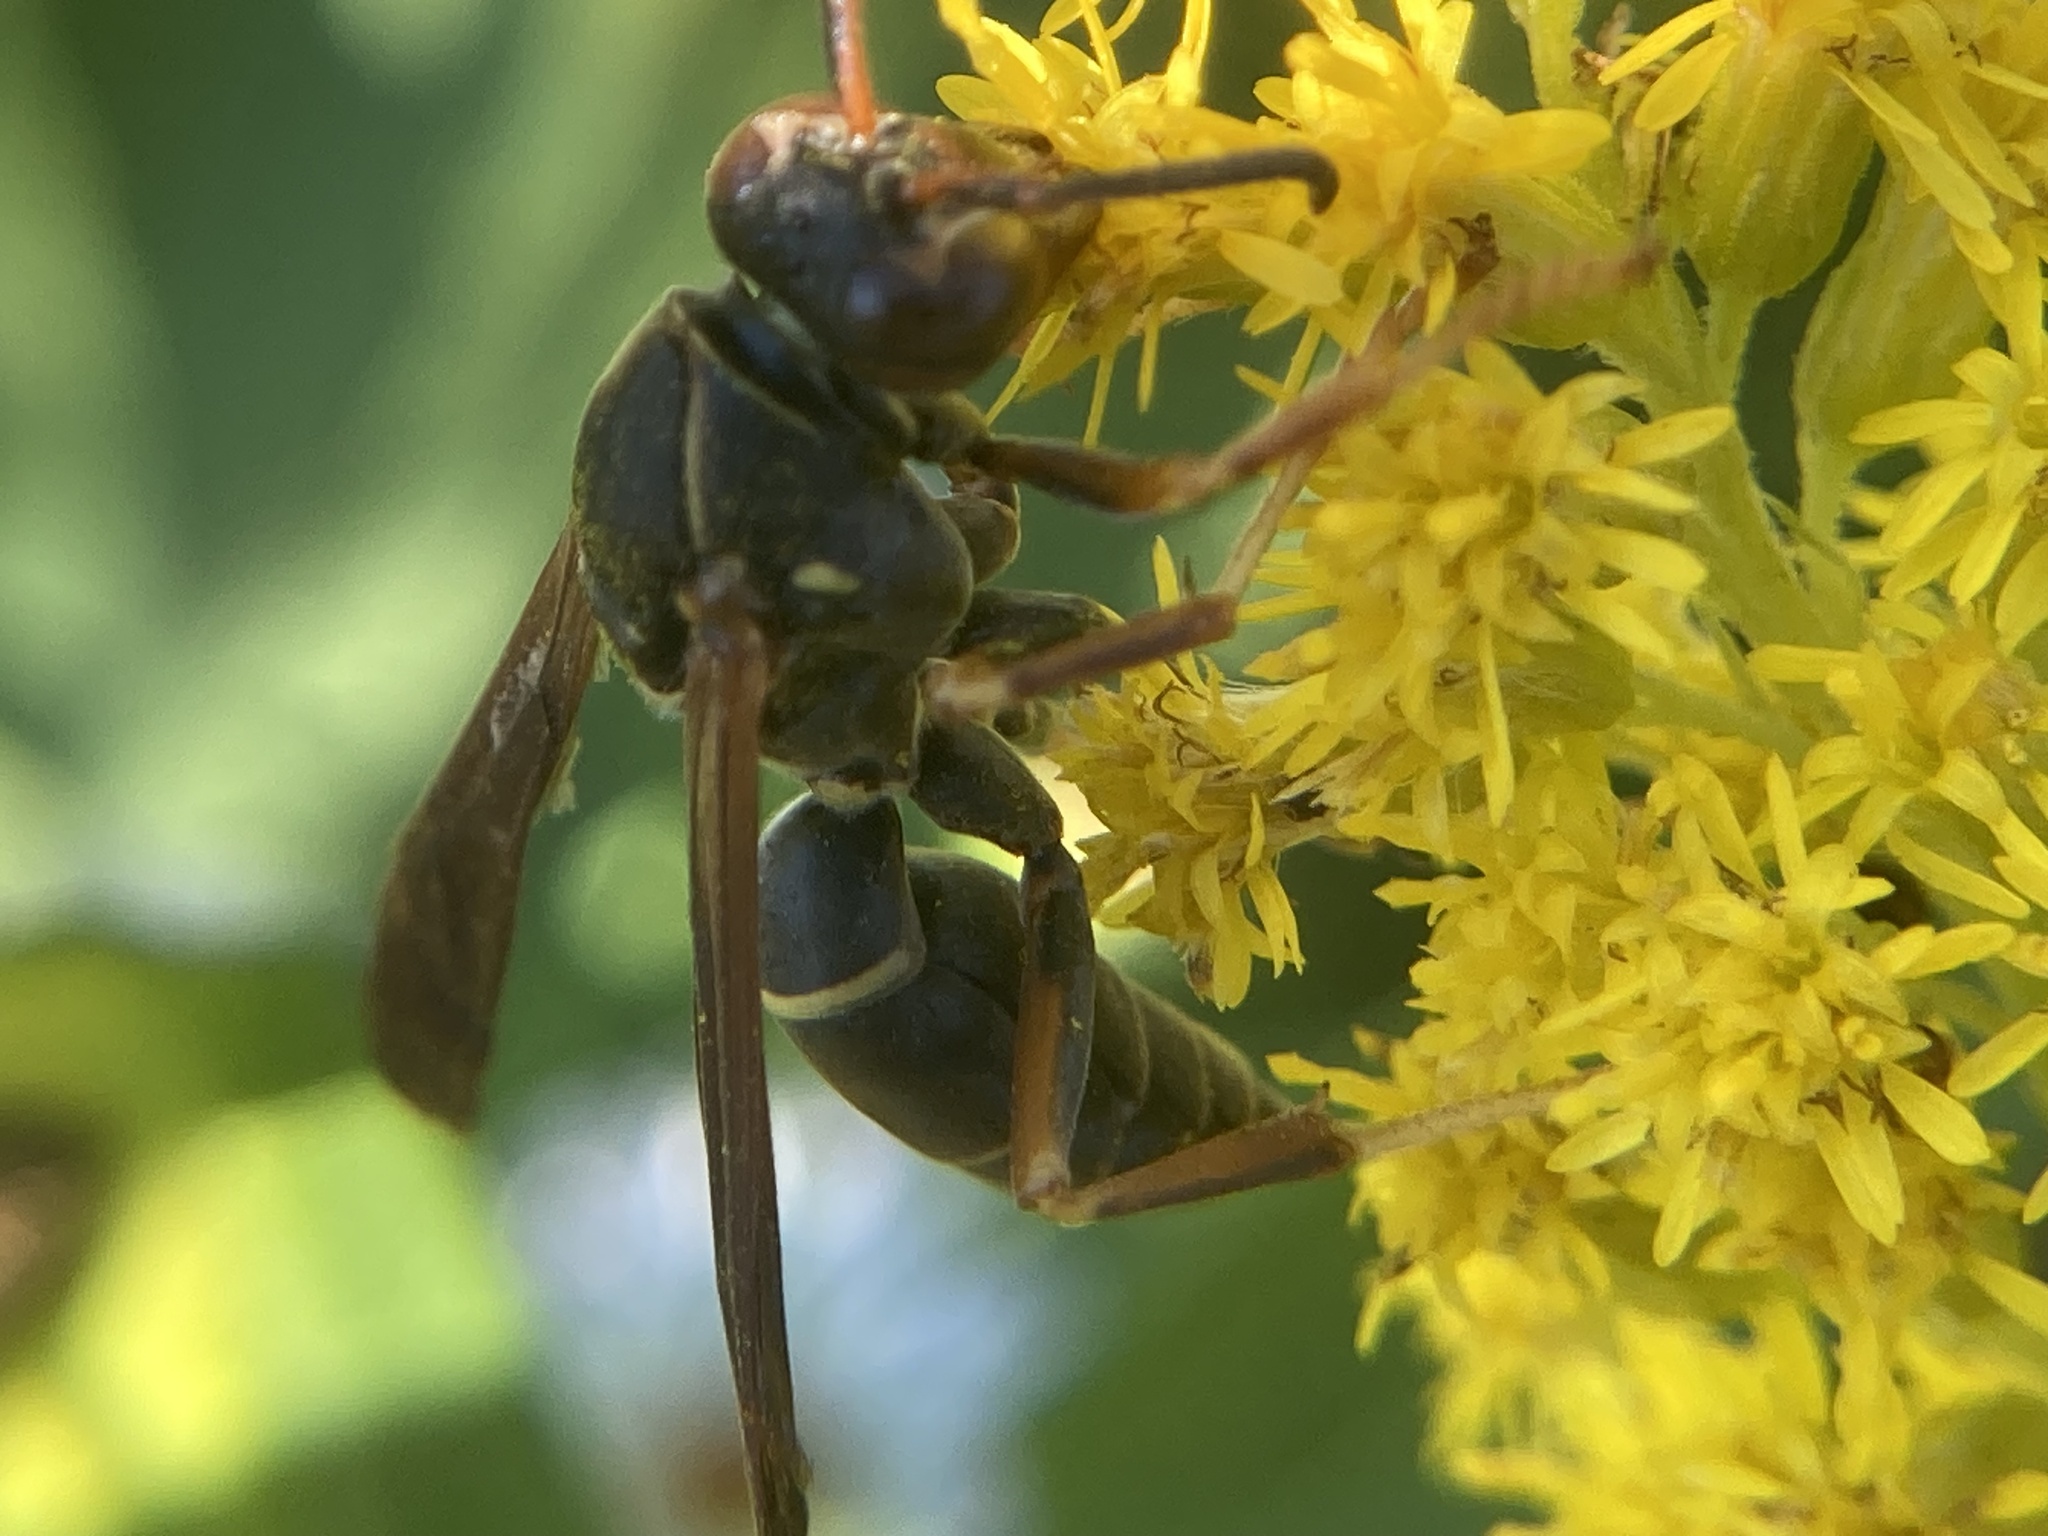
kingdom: Animalia
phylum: Arthropoda
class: Insecta
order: Hymenoptera
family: Eumenidae
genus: Polistes
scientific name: Polistes fuscatus
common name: Dark paper wasp
